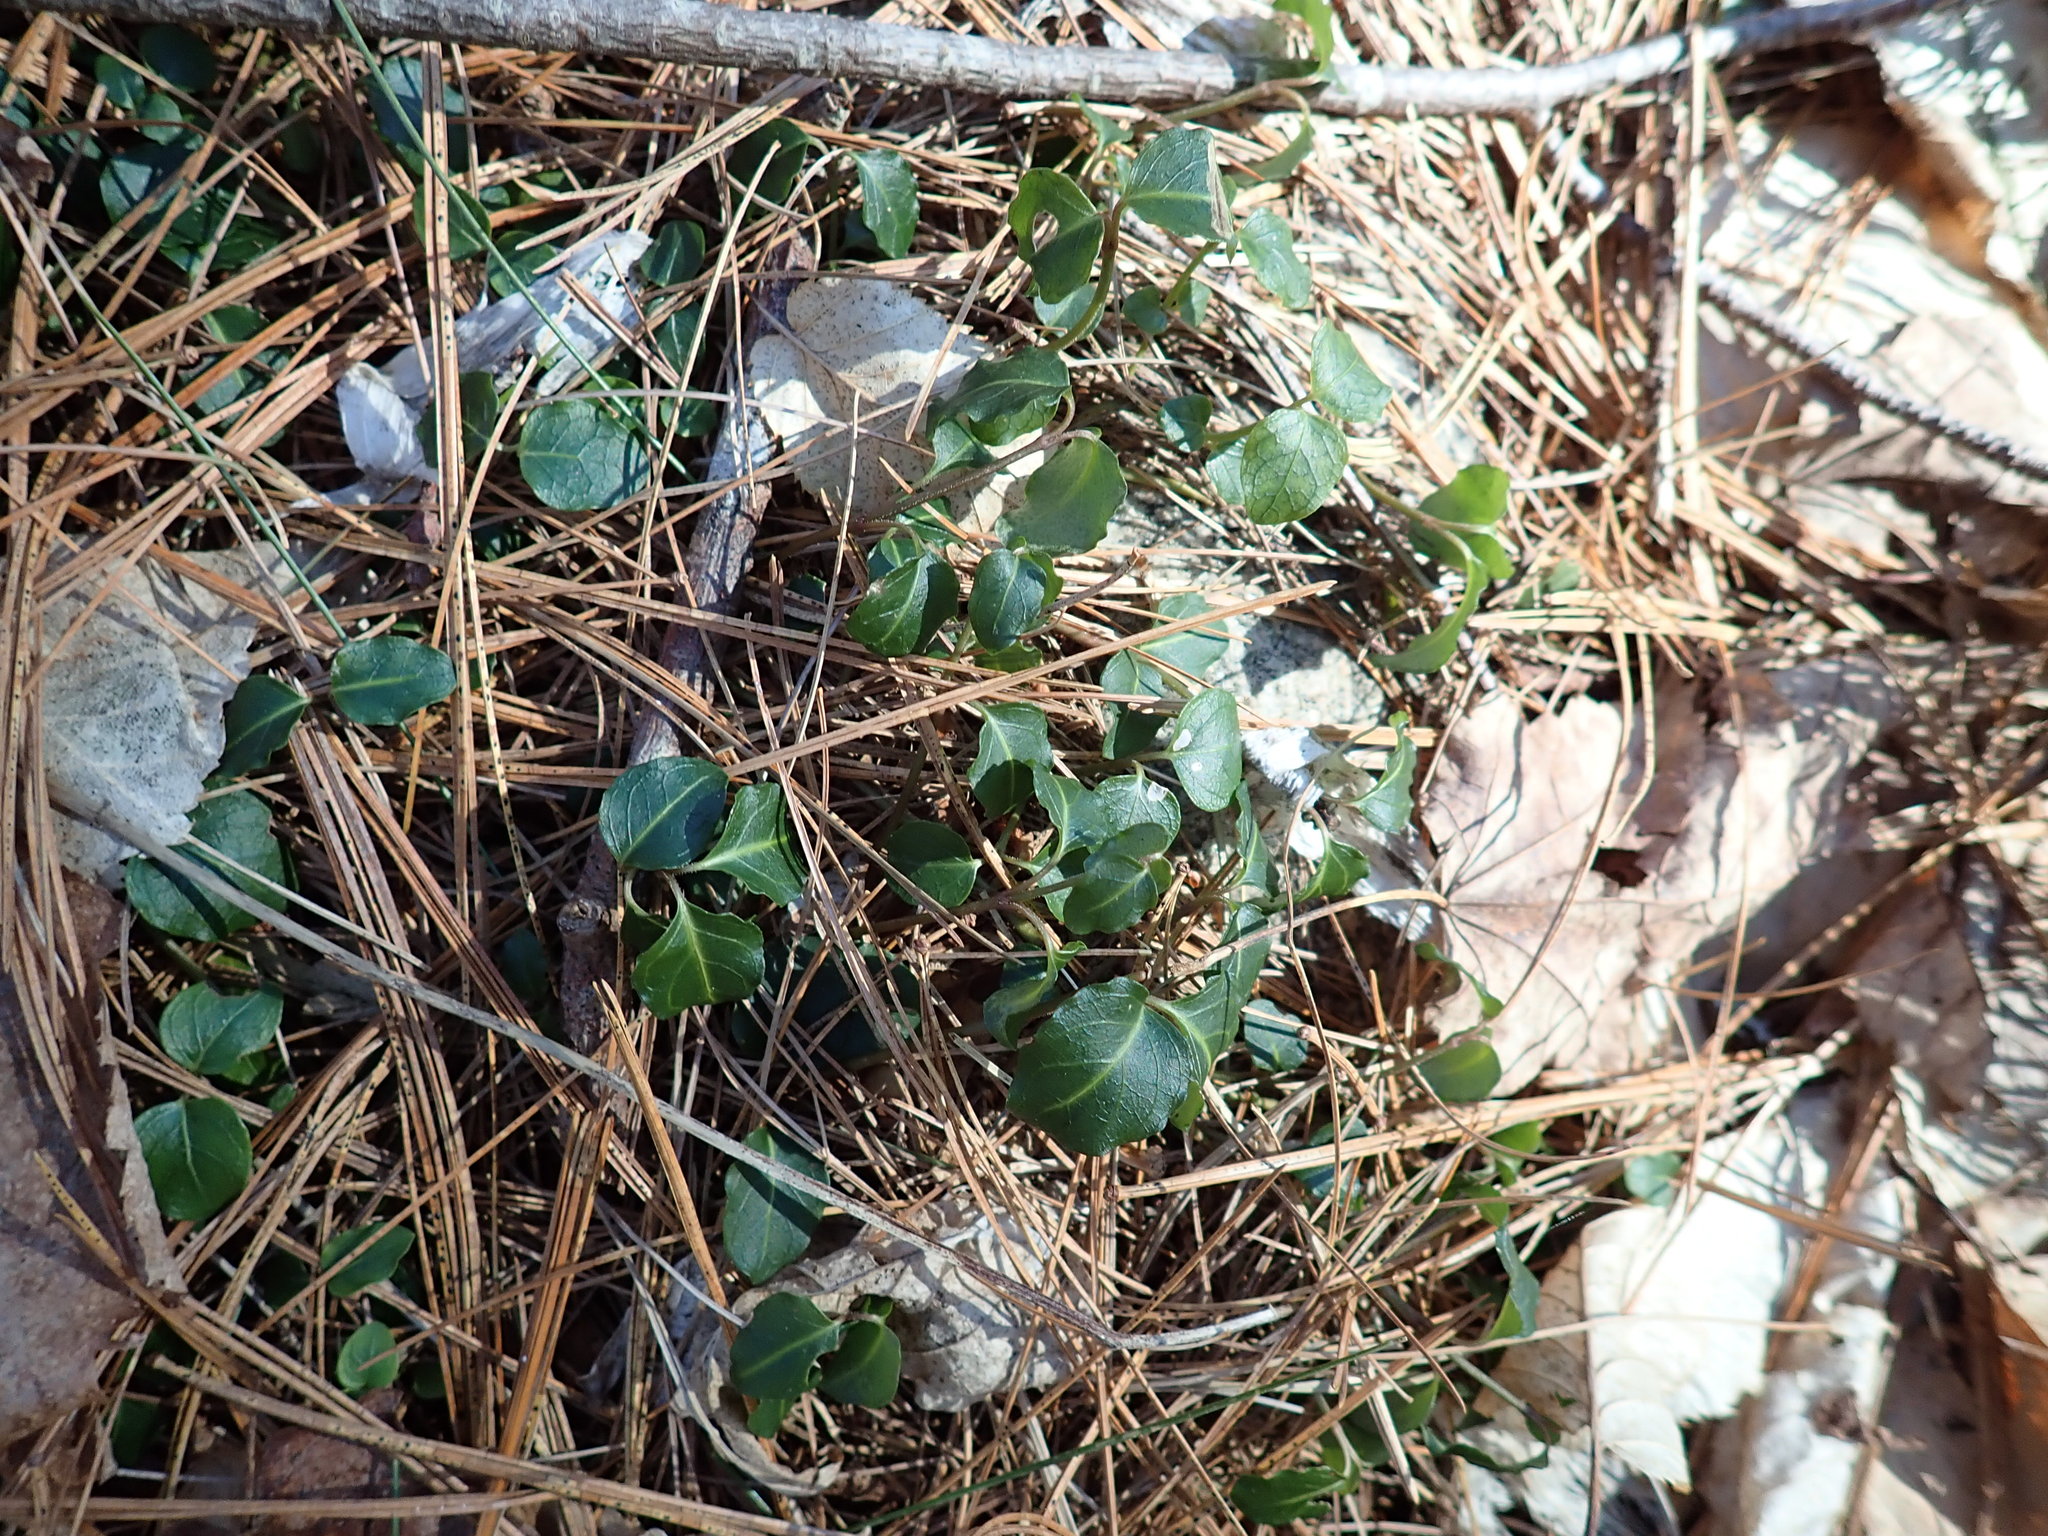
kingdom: Plantae
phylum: Tracheophyta
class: Magnoliopsida
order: Gentianales
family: Rubiaceae
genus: Mitchella
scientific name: Mitchella repens
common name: Partridge-berry
